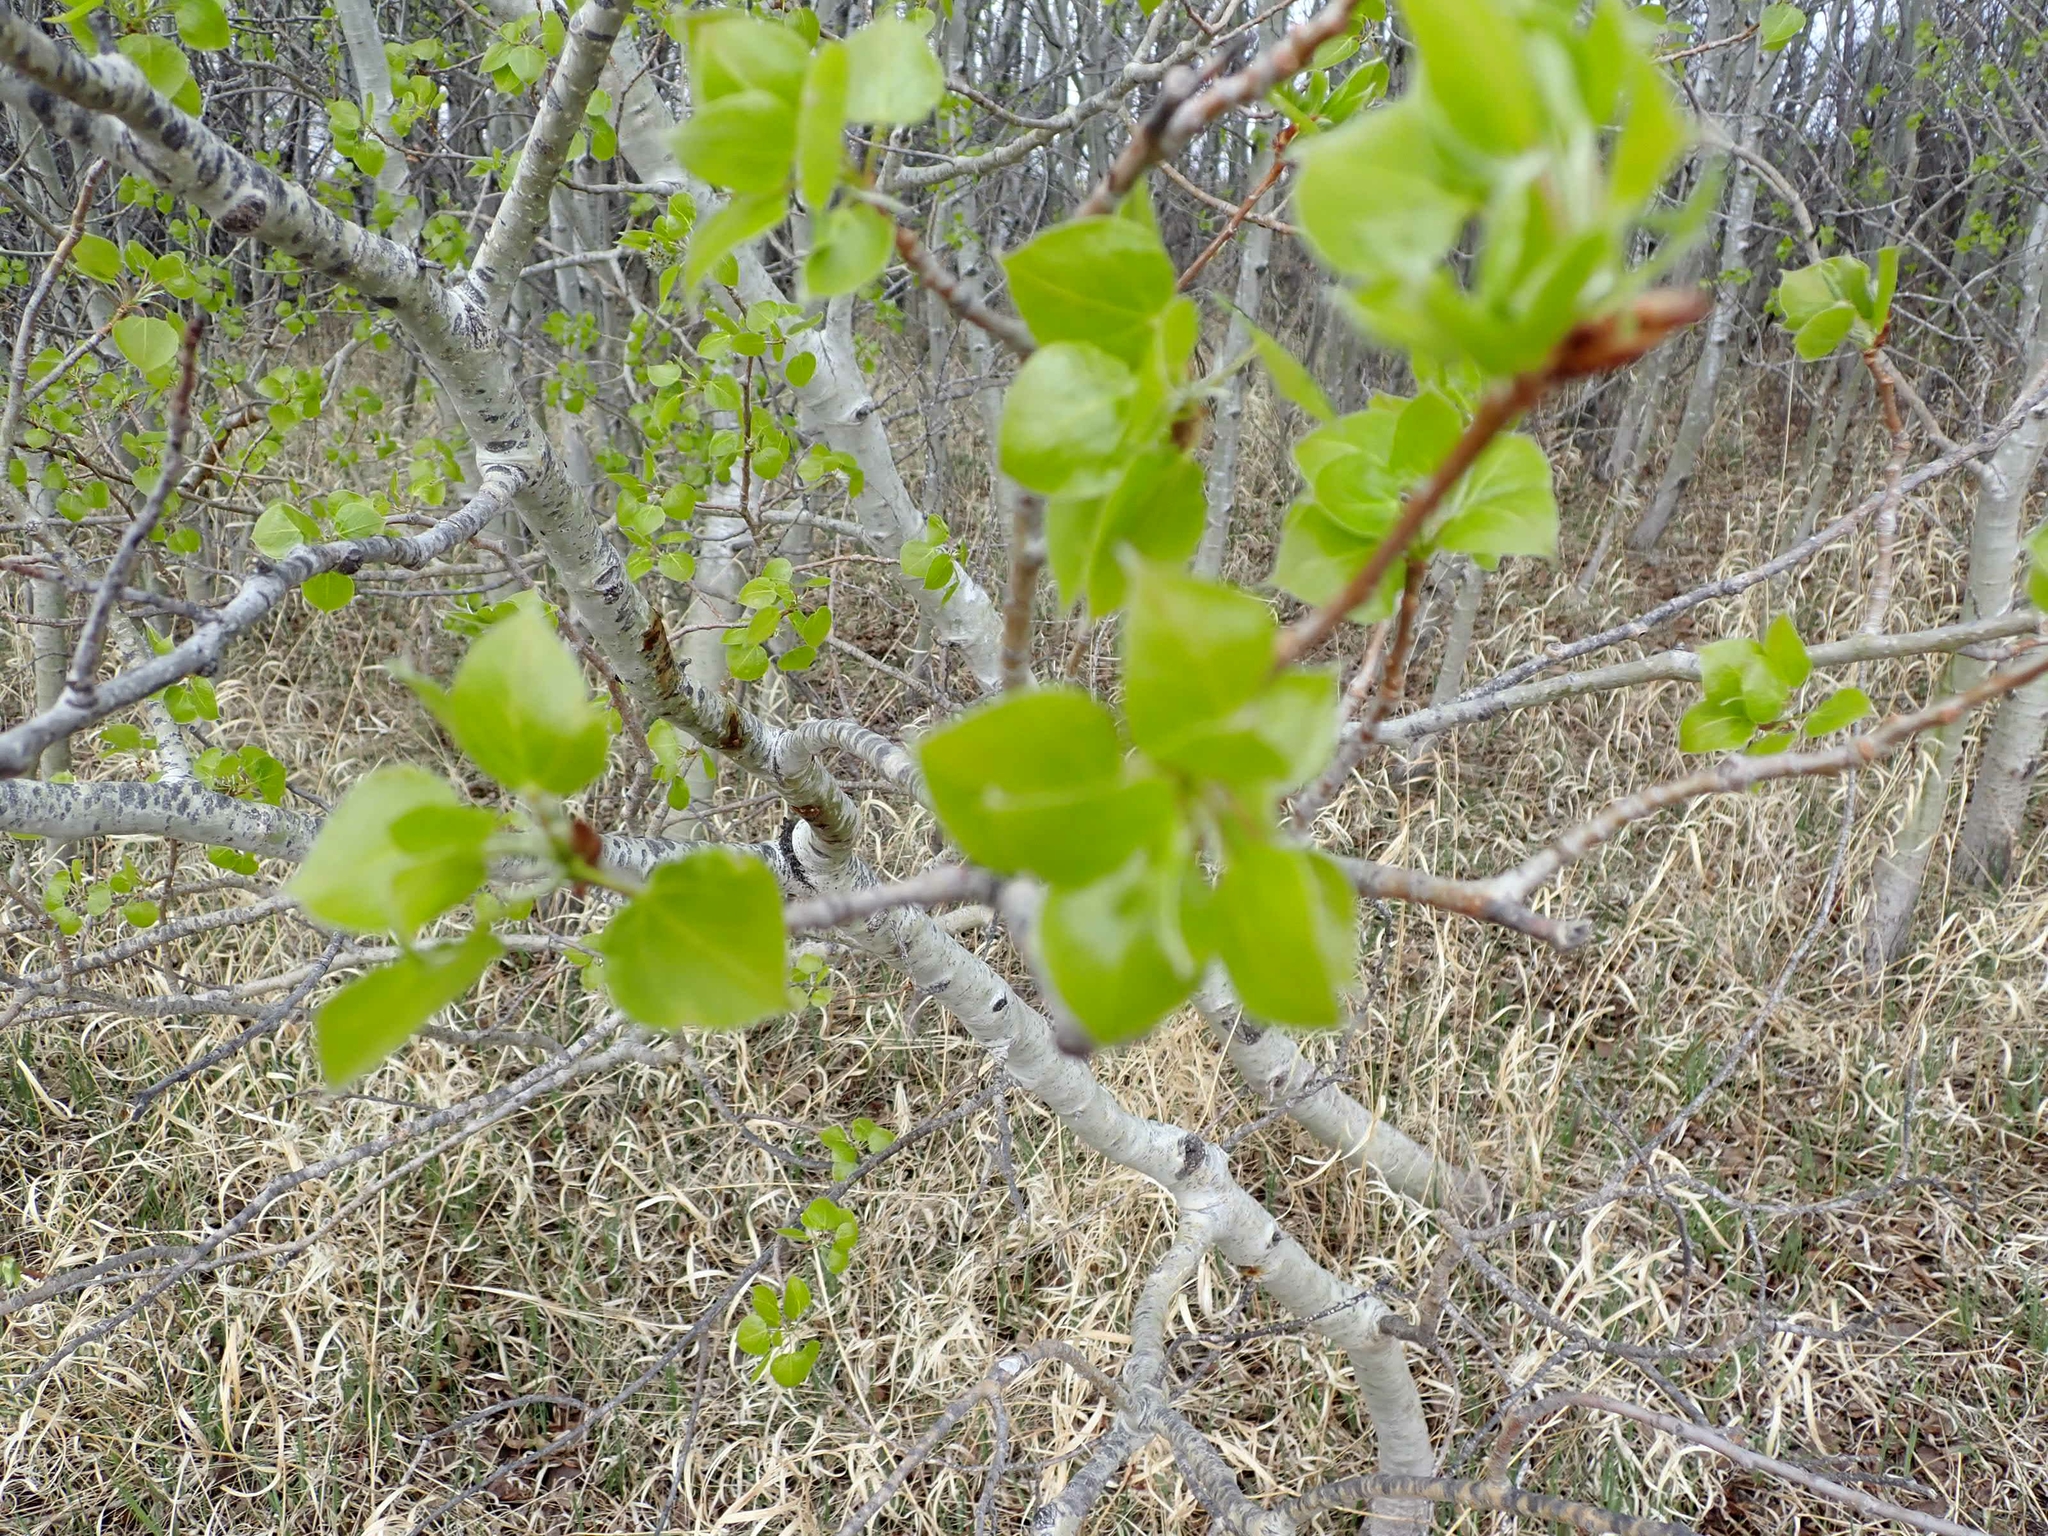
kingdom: Plantae
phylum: Tracheophyta
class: Magnoliopsida
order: Malpighiales
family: Salicaceae
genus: Populus
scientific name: Populus tremuloides
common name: Quaking aspen
